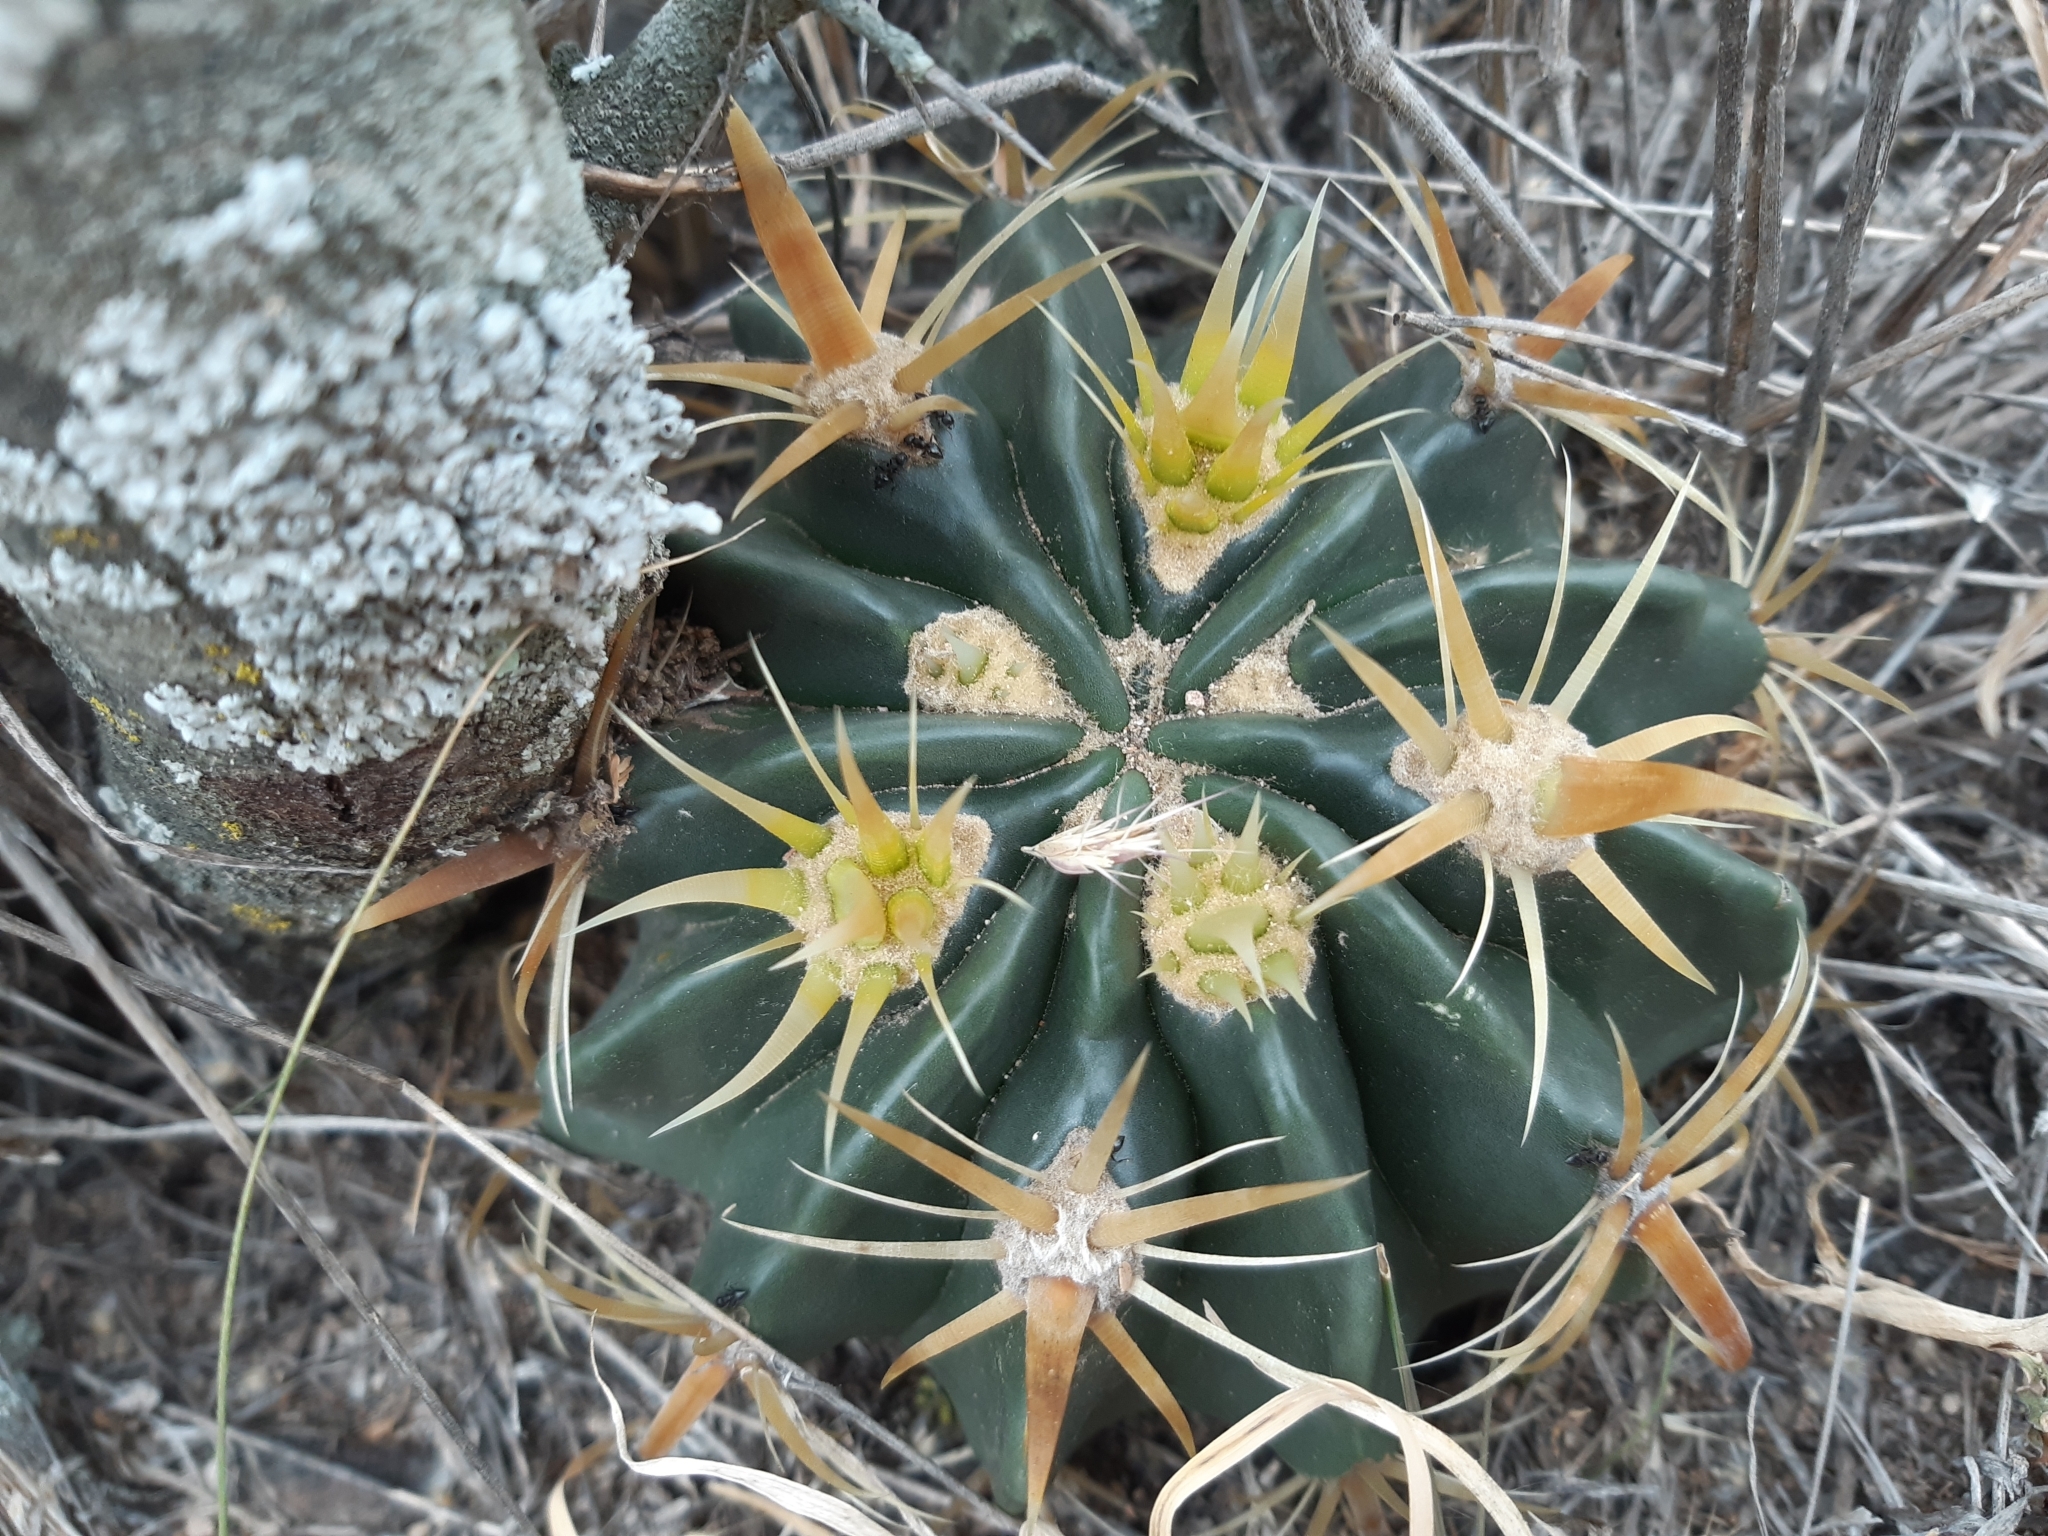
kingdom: Plantae
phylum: Tracheophyta
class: Magnoliopsida
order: Caryophyllales
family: Cactaceae
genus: Ferocactus
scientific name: Ferocactus latispinus
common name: Devil's-tongue cactus
